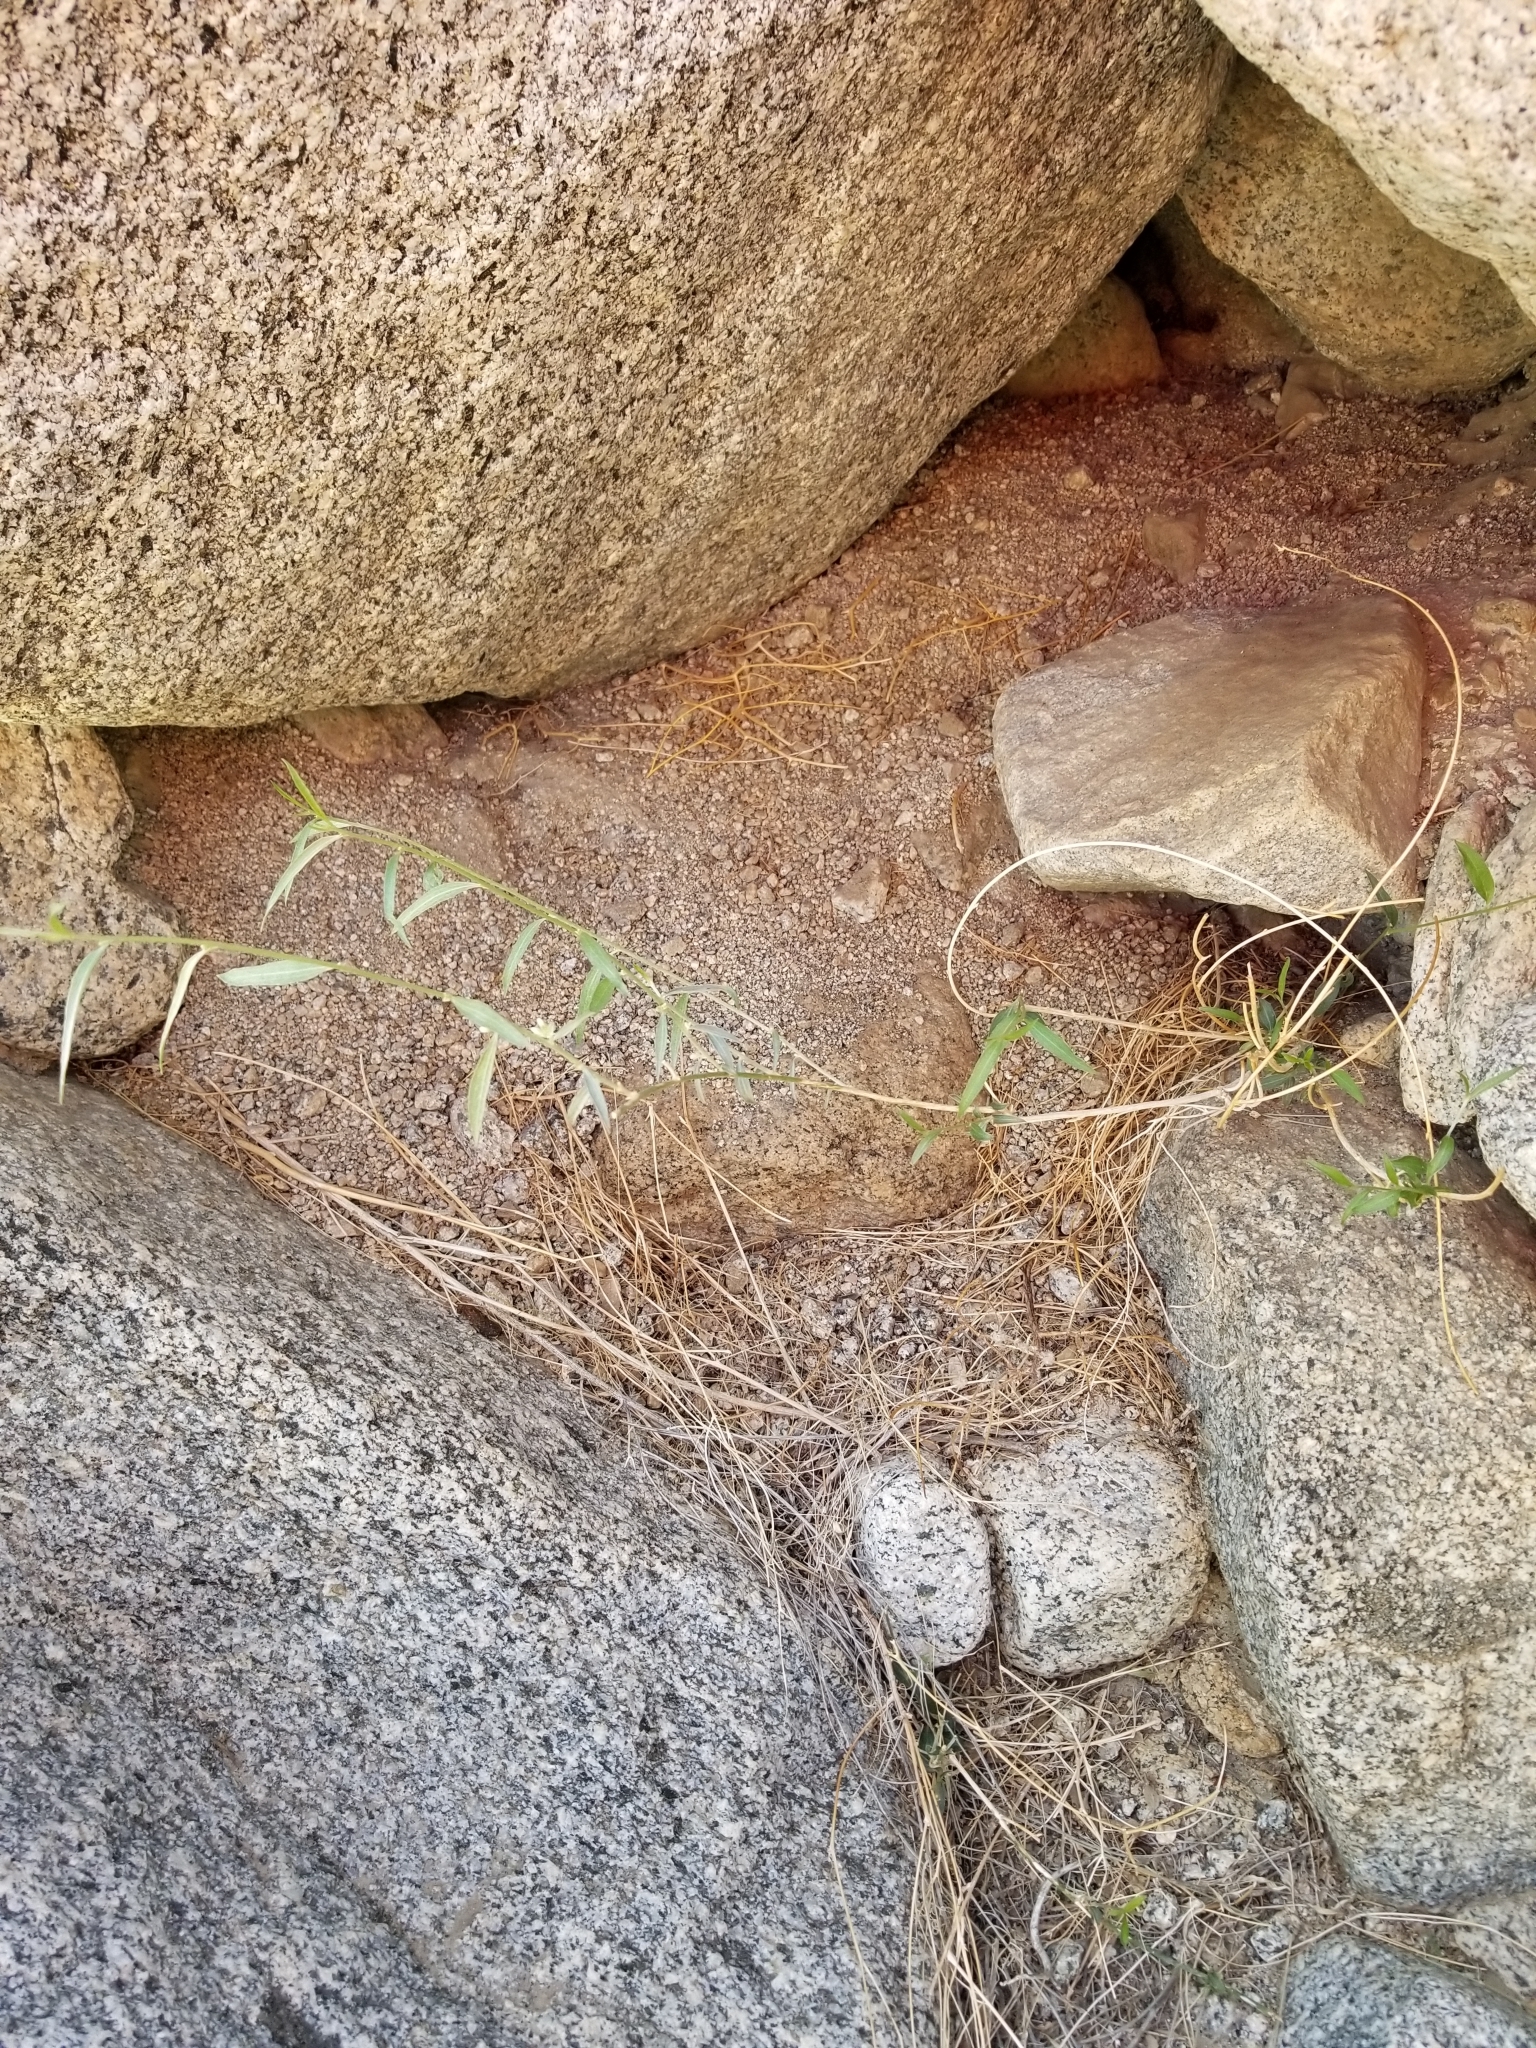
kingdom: Plantae
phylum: Tracheophyta
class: Magnoliopsida
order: Malpighiales
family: Euphorbiaceae
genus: Ditaxis
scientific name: Ditaxis lanceolata
